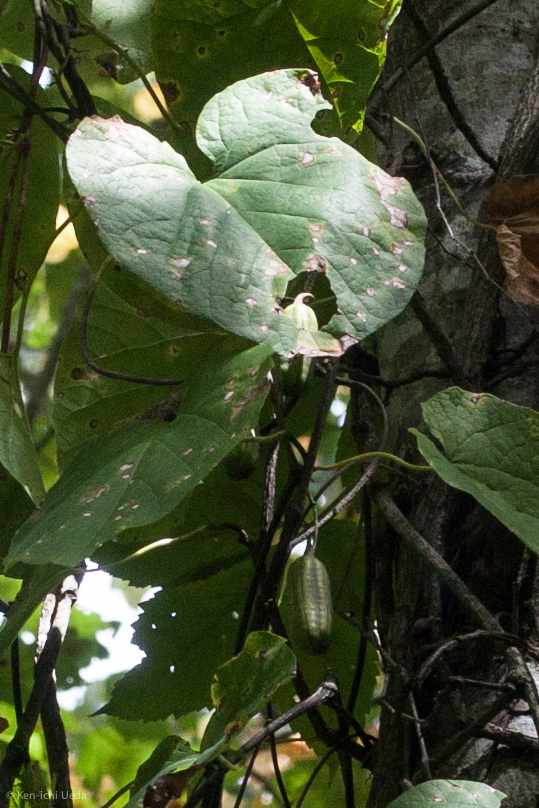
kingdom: Plantae
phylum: Tracheophyta
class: Magnoliopsida
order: Piperales
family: Aristolochiaceae
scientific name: Aristolochiaceae
